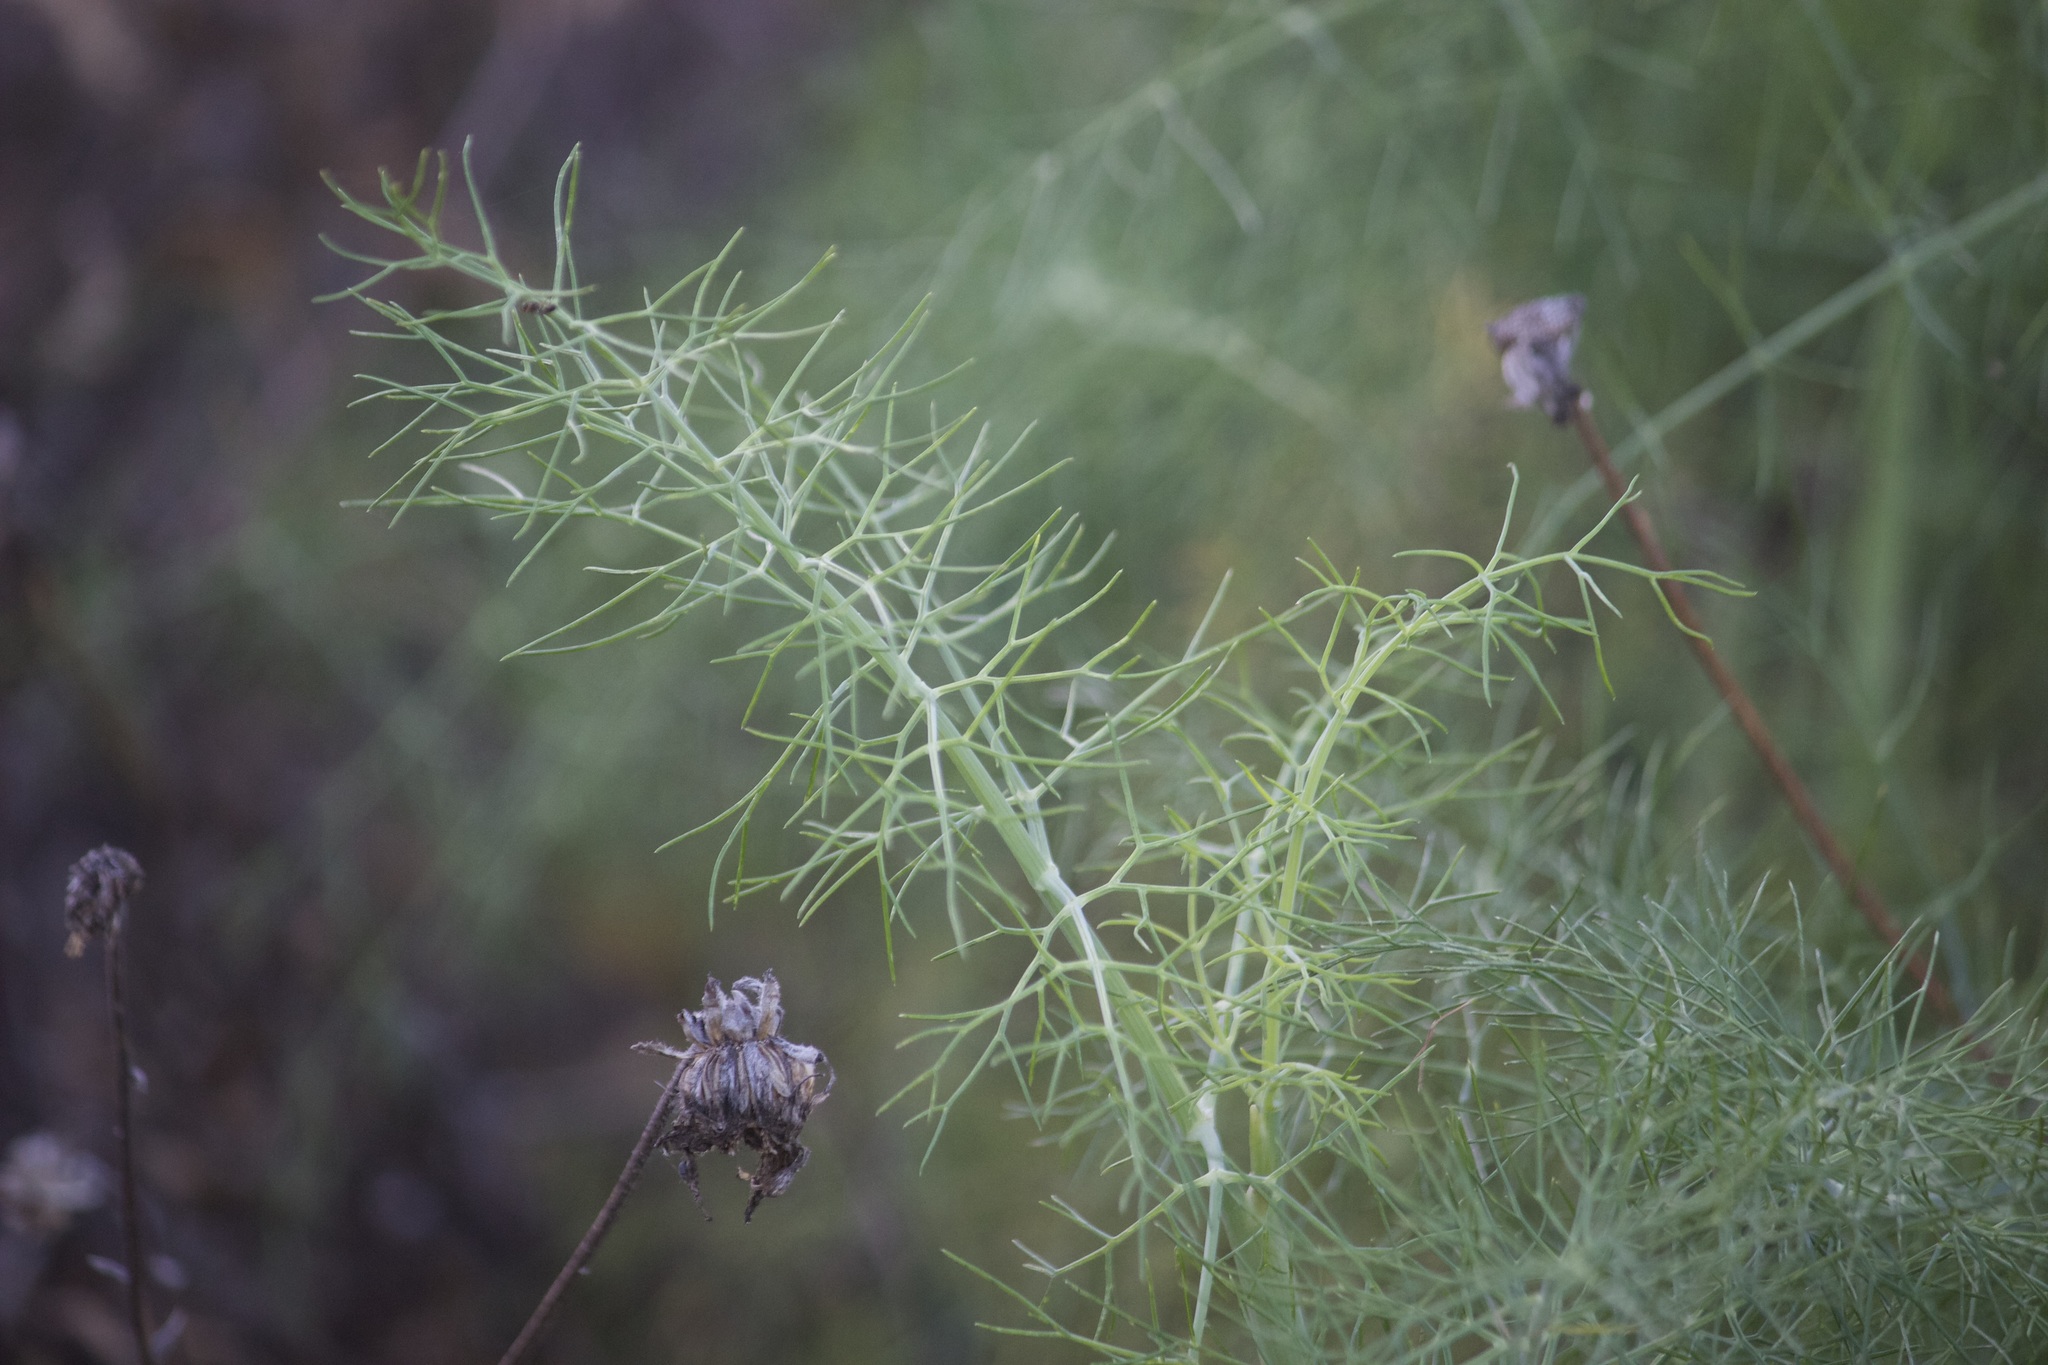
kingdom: Plantae
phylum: Tracheophyta
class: Magnoliopsida
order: Apiales
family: Apiaceae
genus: Foeniculum
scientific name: Foeniculum vulgare
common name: Fennel
